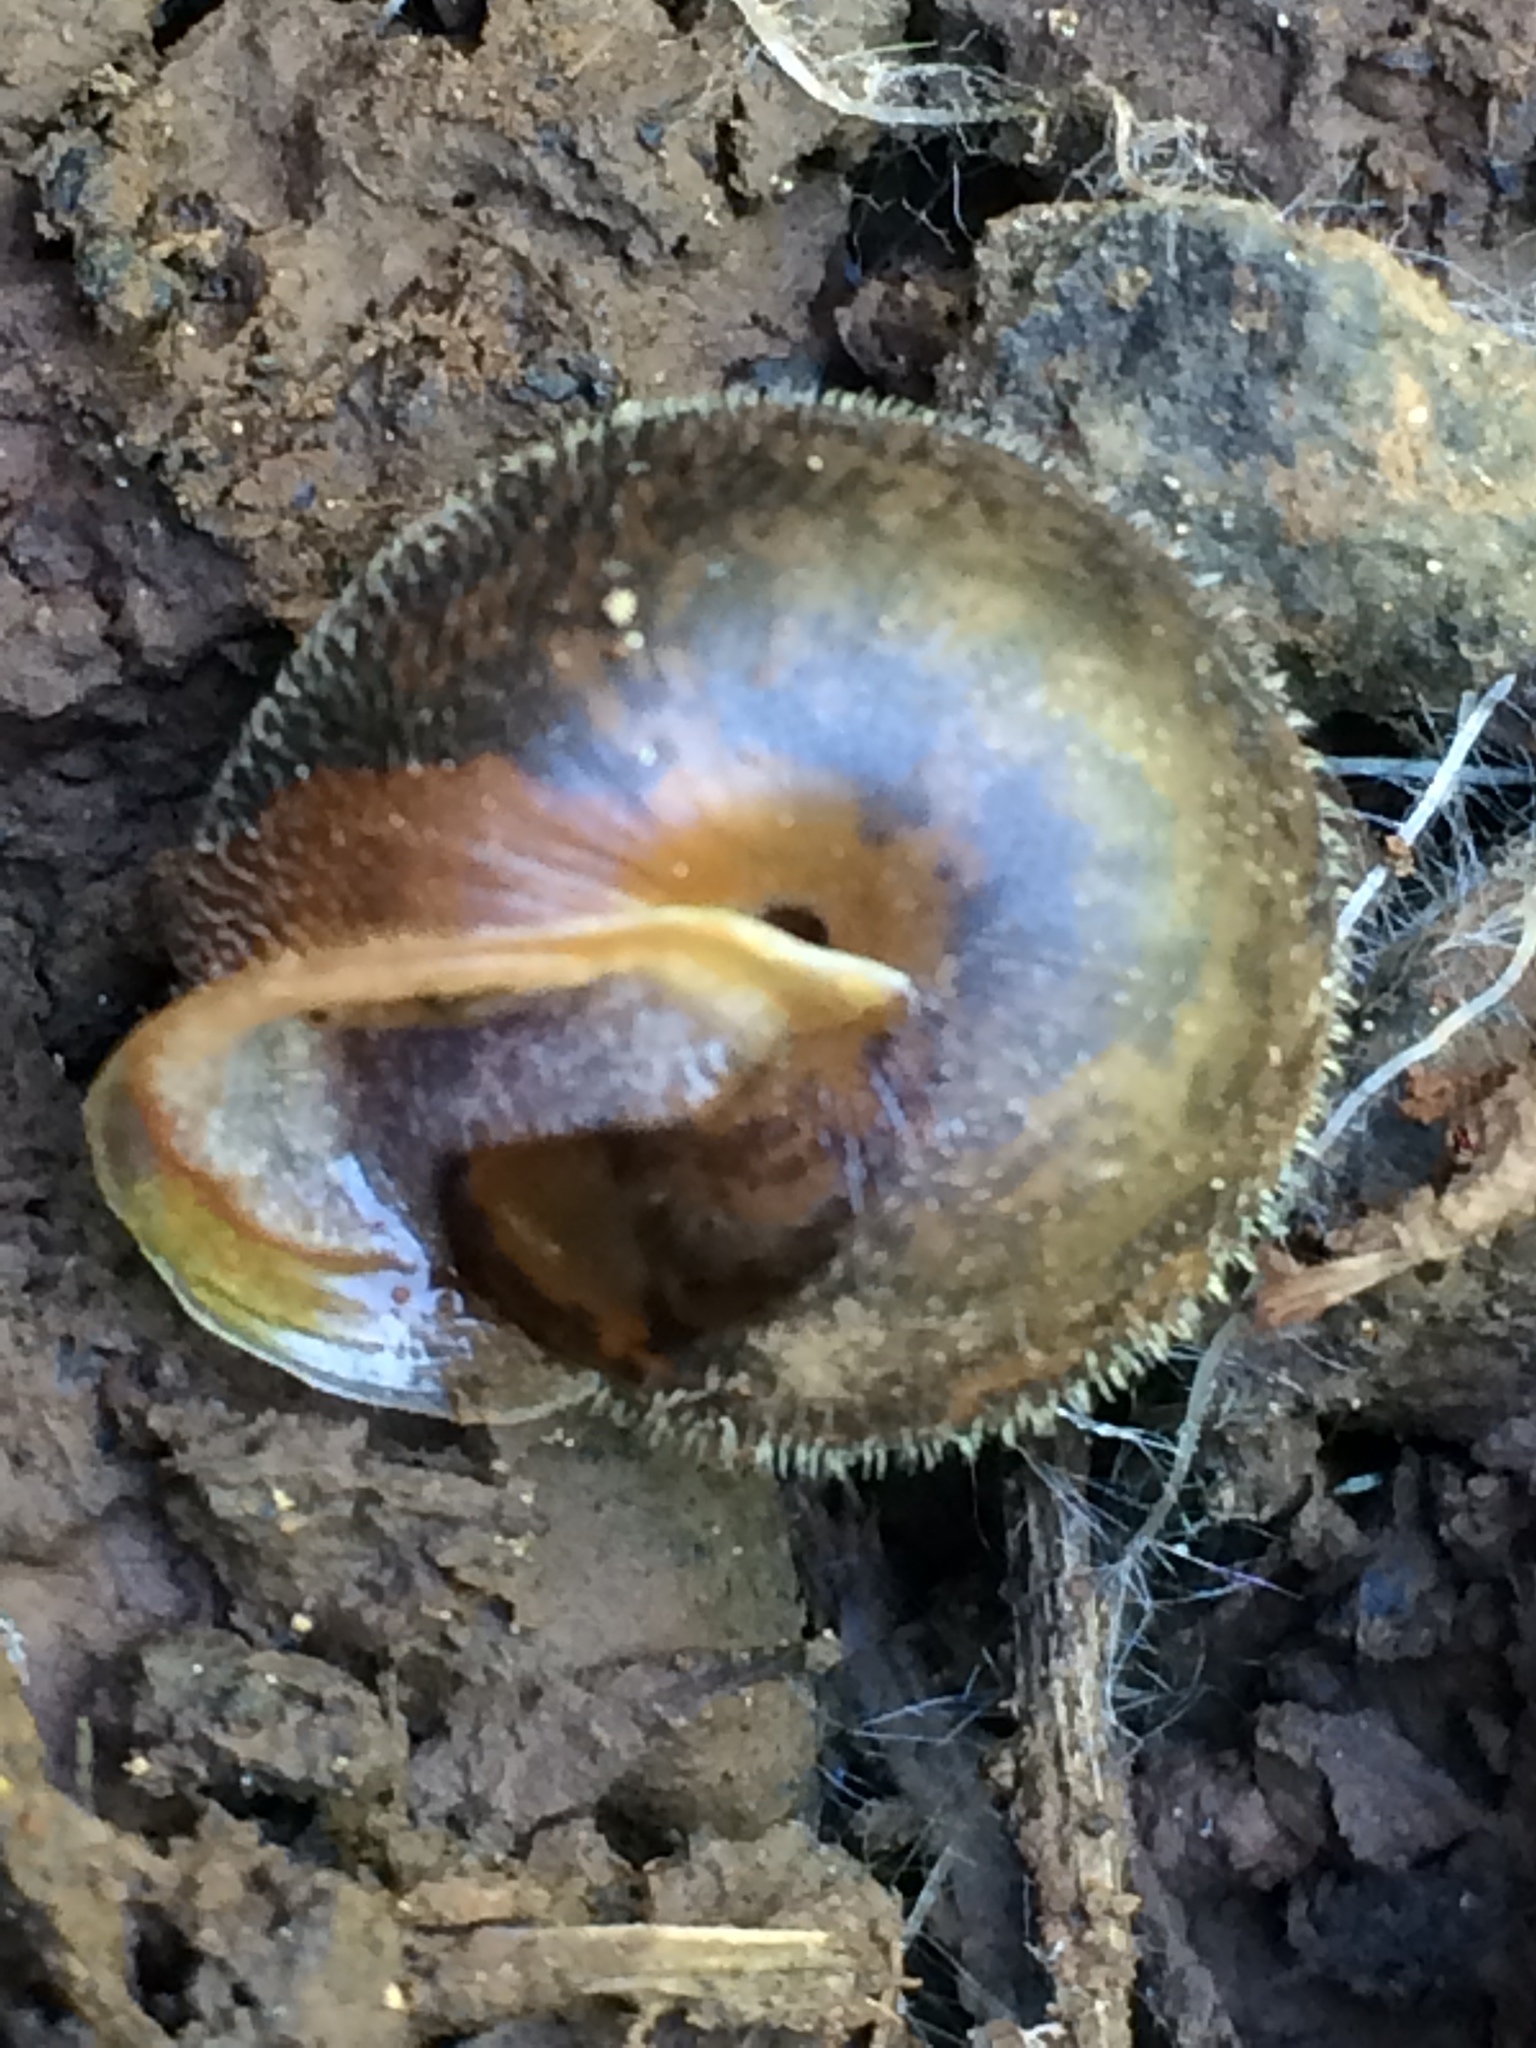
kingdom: Animalia
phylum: Mollusca
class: Gastropoda
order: Stylommatophora
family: Polygyridae
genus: Vespericola
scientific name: Vespericola columbianus
